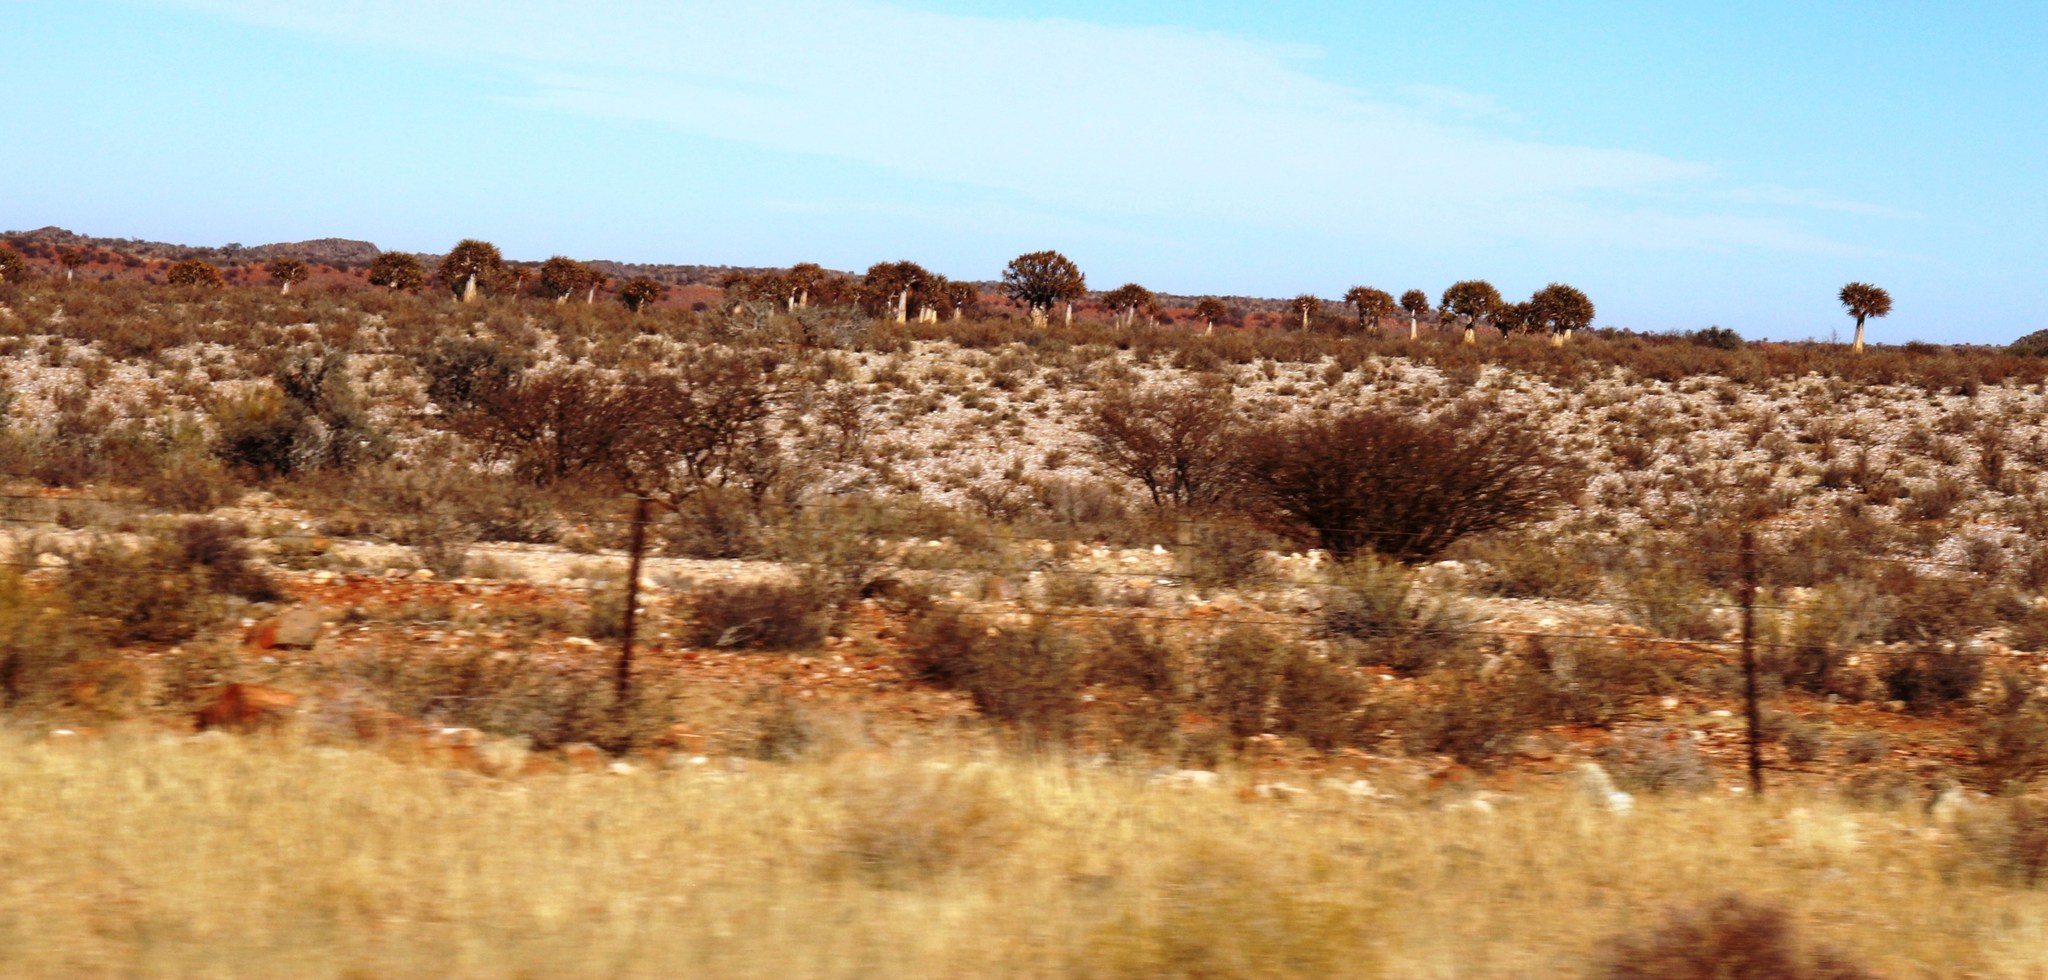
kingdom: Plantae
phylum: Tracheophyta
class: Liliopsida
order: Asparagales
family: Asphodelaceae
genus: Aloidendron
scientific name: Aloidendron dichotomum
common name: Quiver tree
